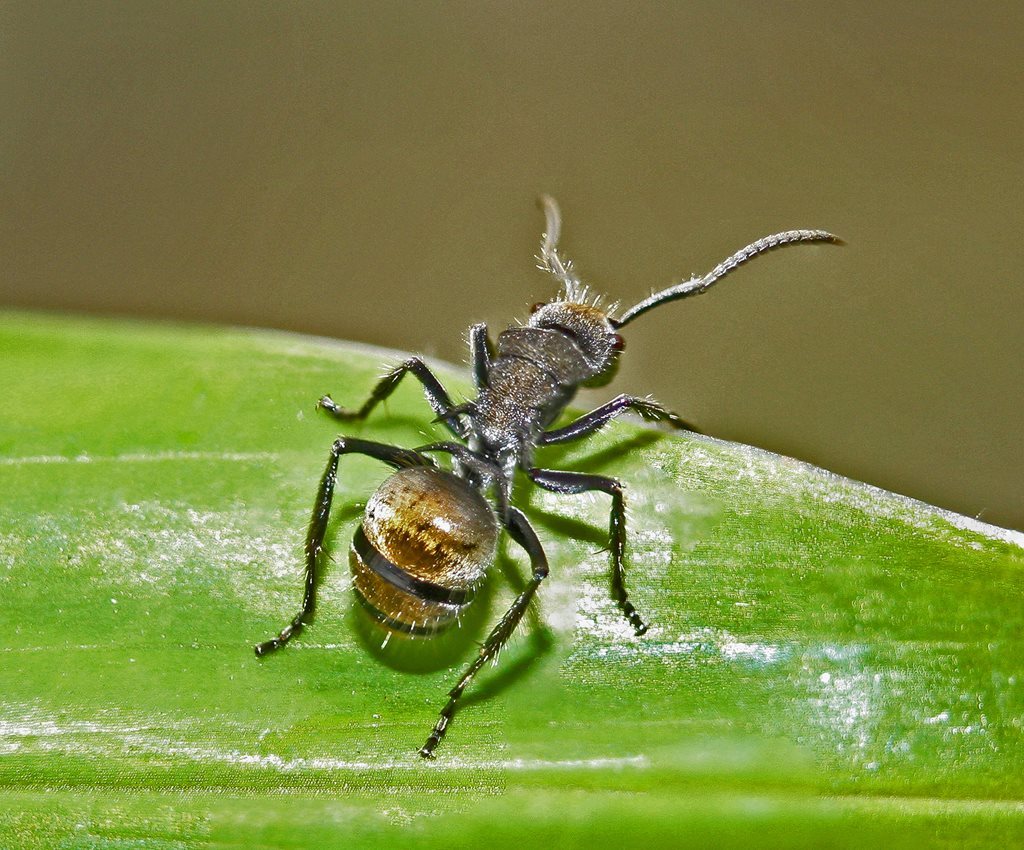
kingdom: Animalia
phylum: Arthropoda
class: Insecta
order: Hymenoptera
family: Formicidae
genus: Polyrhachis
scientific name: Polyrhachis aurea
